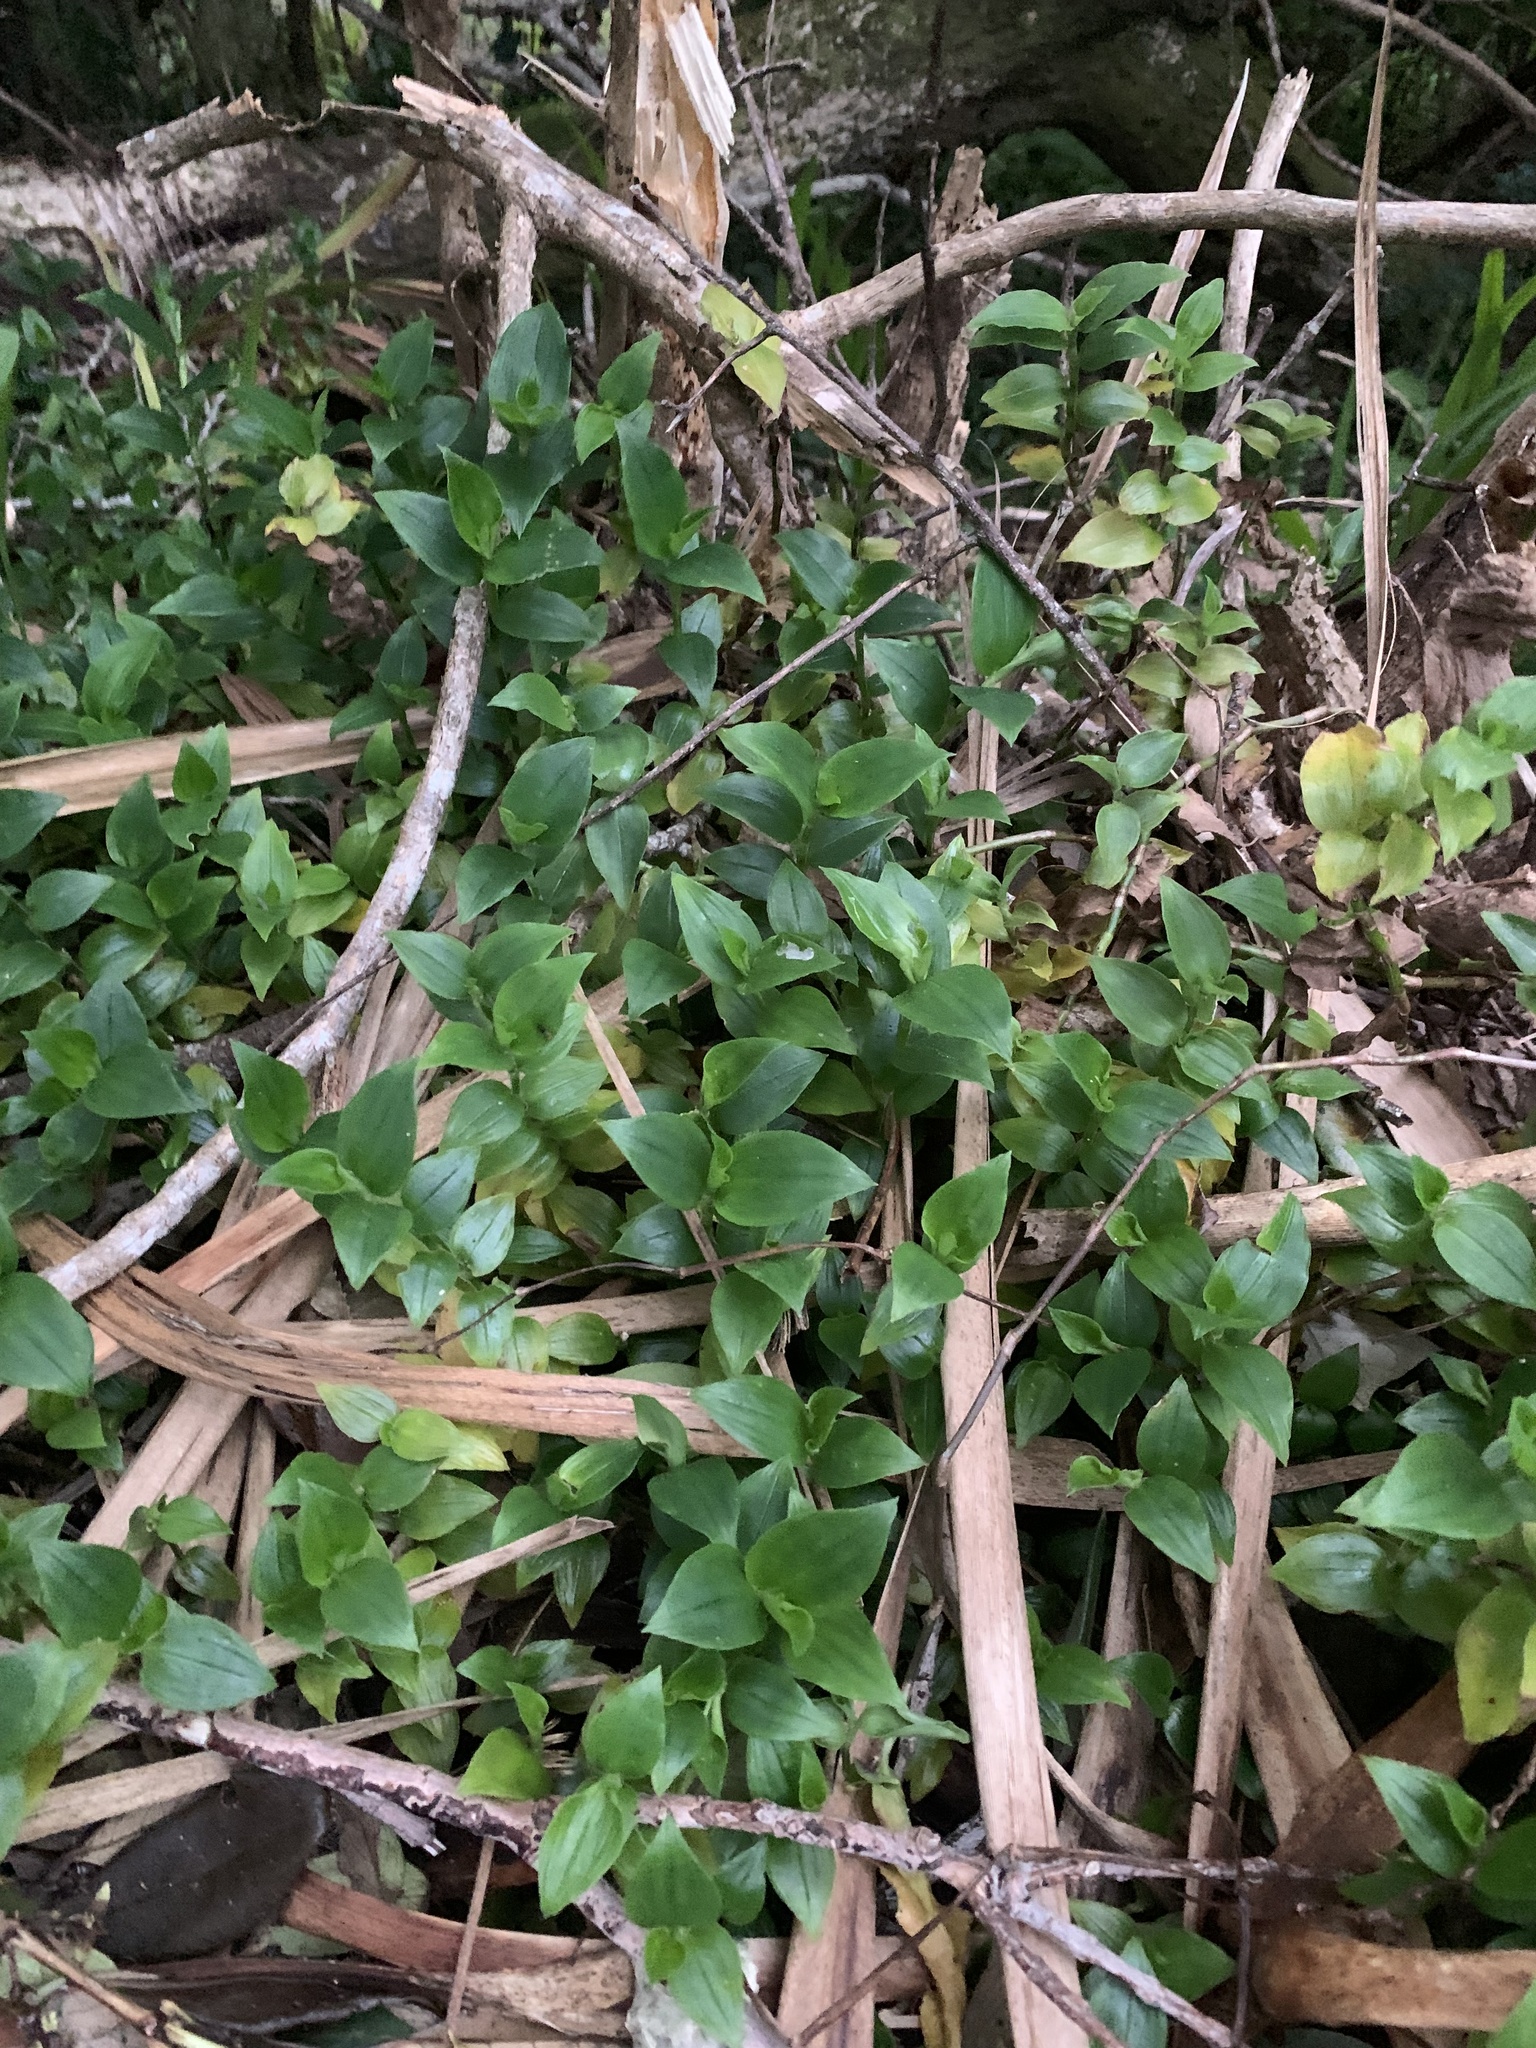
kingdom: Plantae
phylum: Tracheophyta
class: Liliopsida
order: Commelinales
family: Commelinaceae
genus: Tradescantia
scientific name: Tradescantia fluminensis
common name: Wandering-jew
